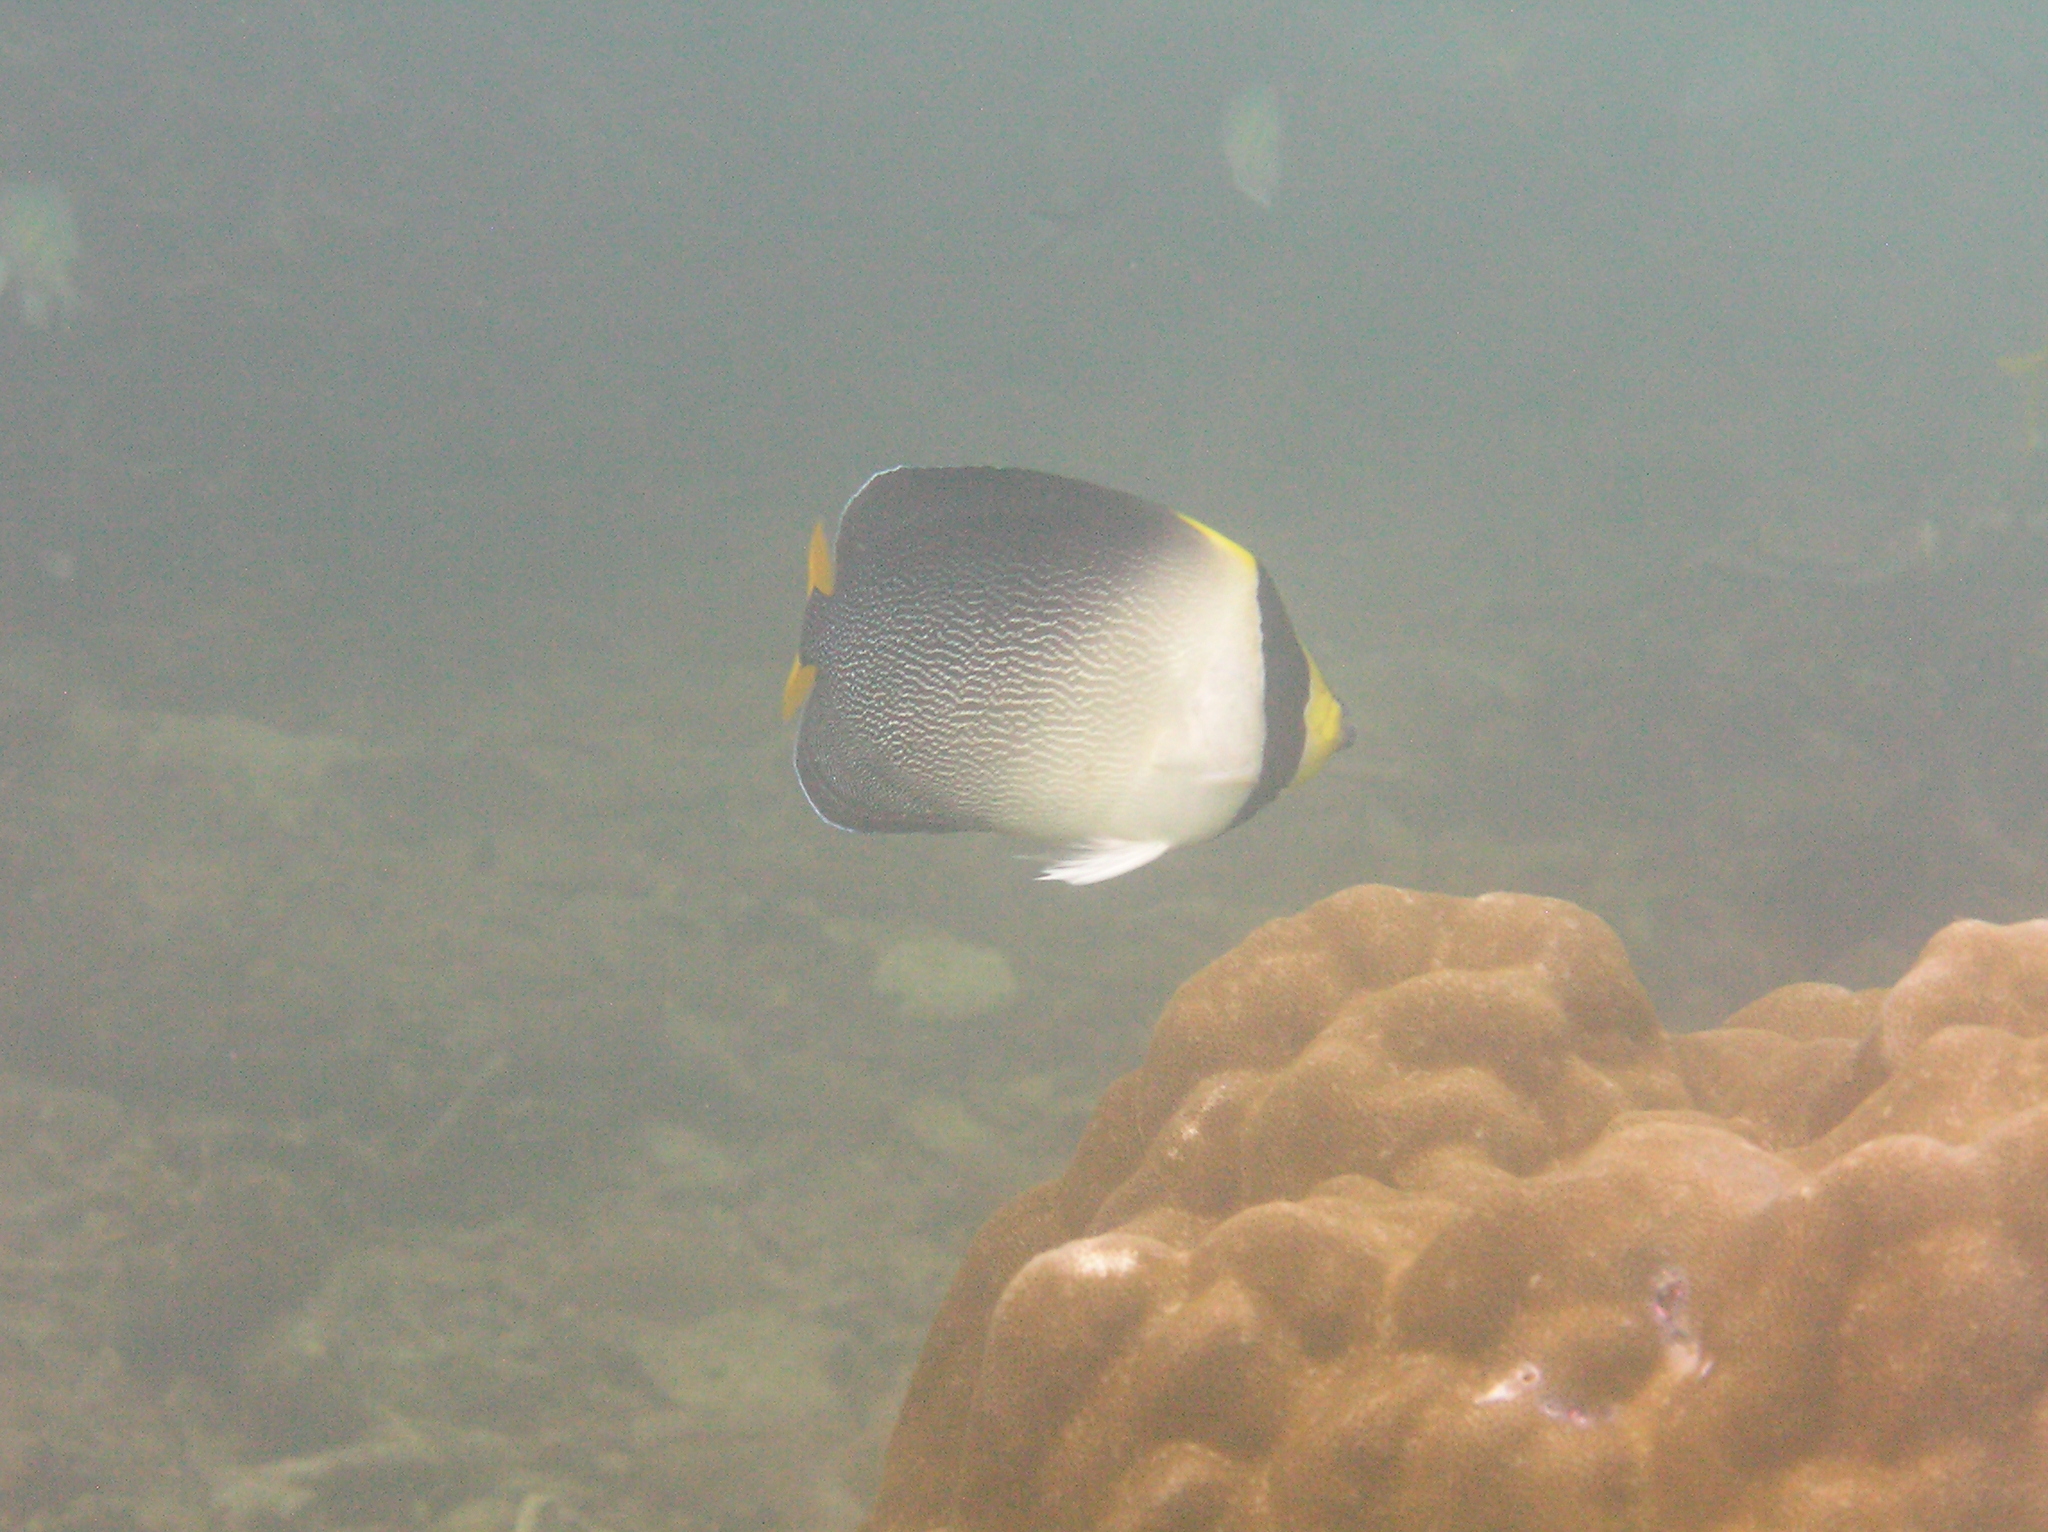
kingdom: Animalia
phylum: Chordata
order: Perciformes
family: Pomacanthidae
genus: Chaetodontoplus
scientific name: Chaetodontoplus mesoleucus
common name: Vermiculated angelfish
